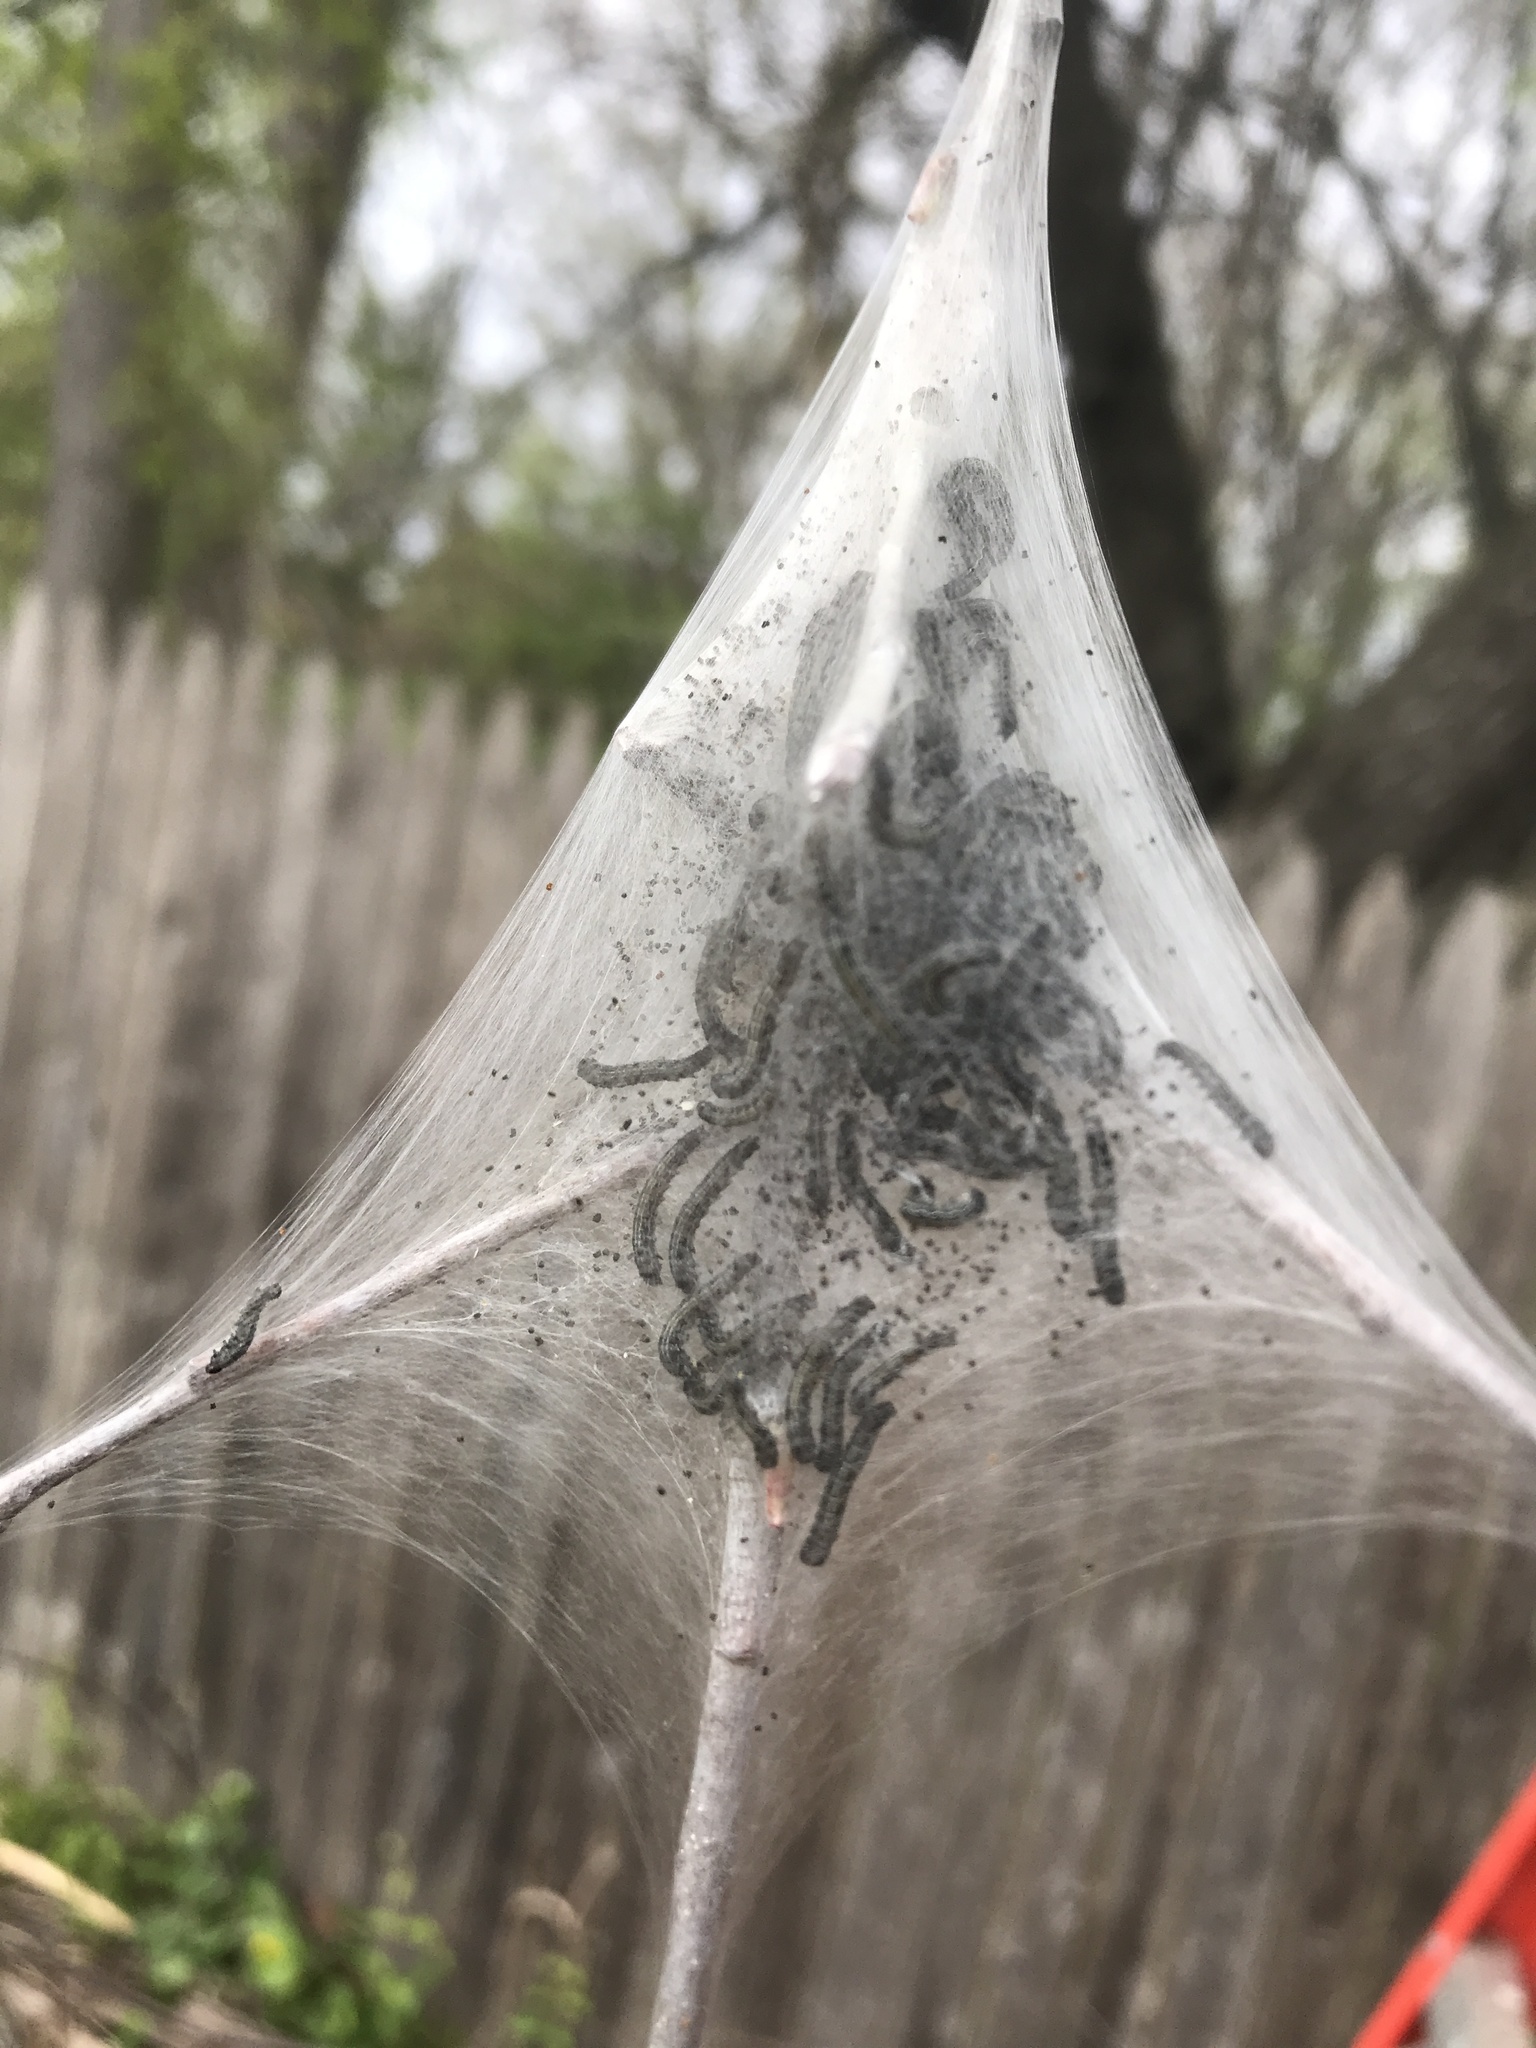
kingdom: Animalia
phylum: Arthropoda
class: Insecta
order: Lepidoptera
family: Lasiocampidae
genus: Malacosoma
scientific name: Malacosoma americana
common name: Eastern tent caterpillar moth
